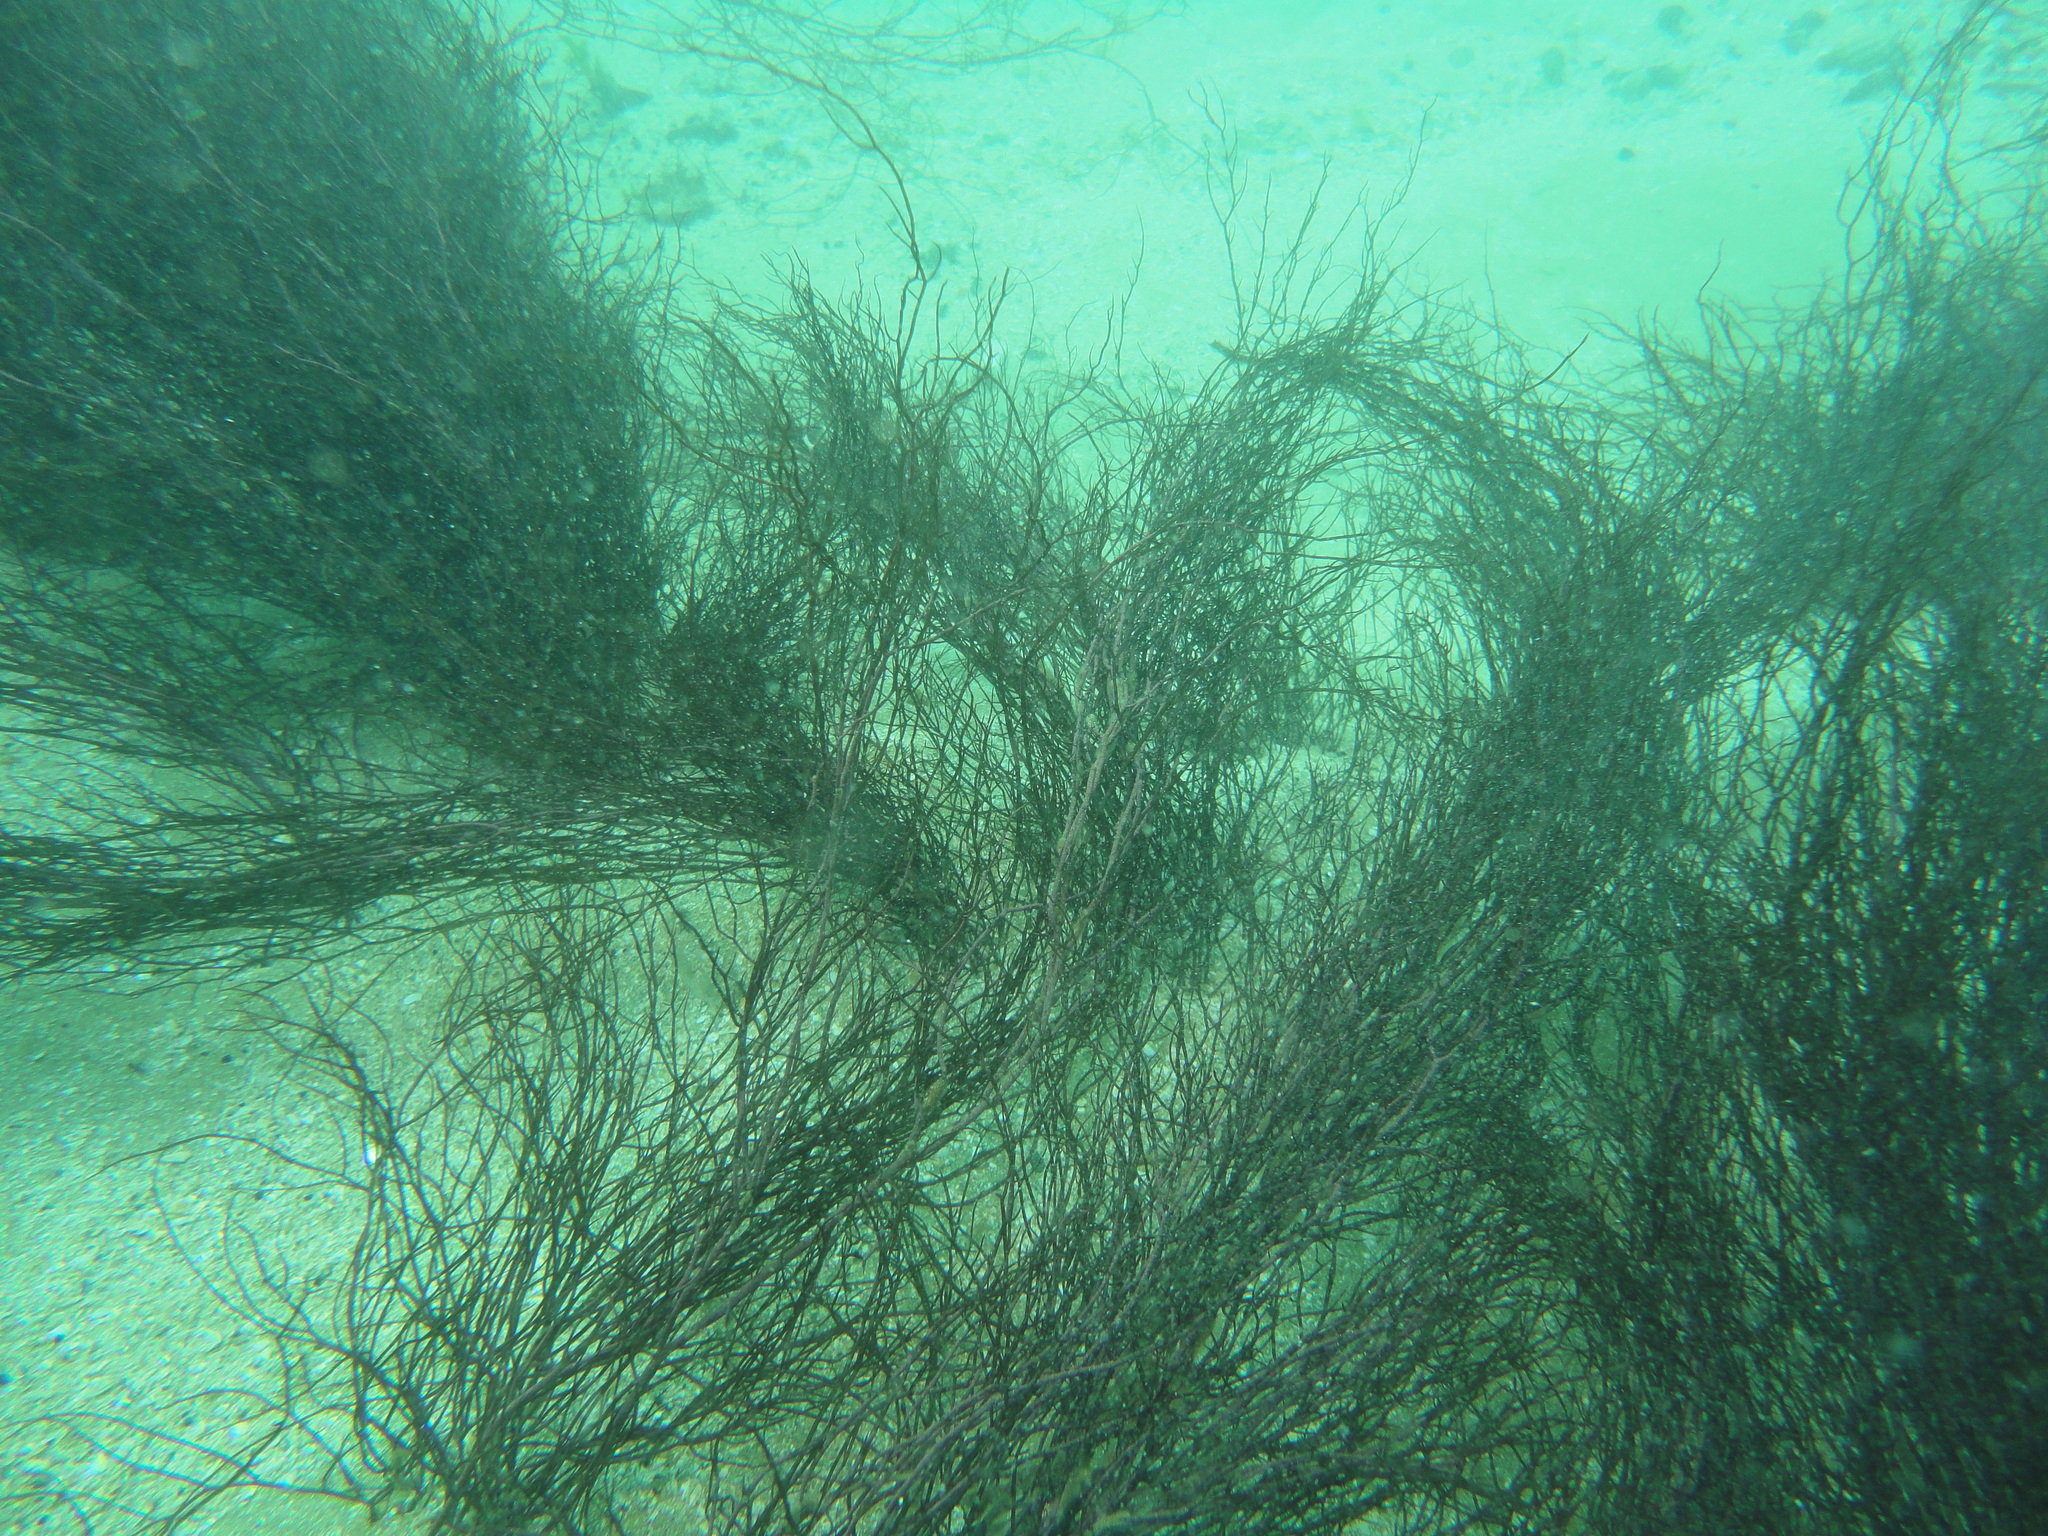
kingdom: Plantae
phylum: Rhodophyta
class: Florideophyceae
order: Gracilariales
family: Gracilariaceae
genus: Gracilaria
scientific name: Gracilaria chilensis
